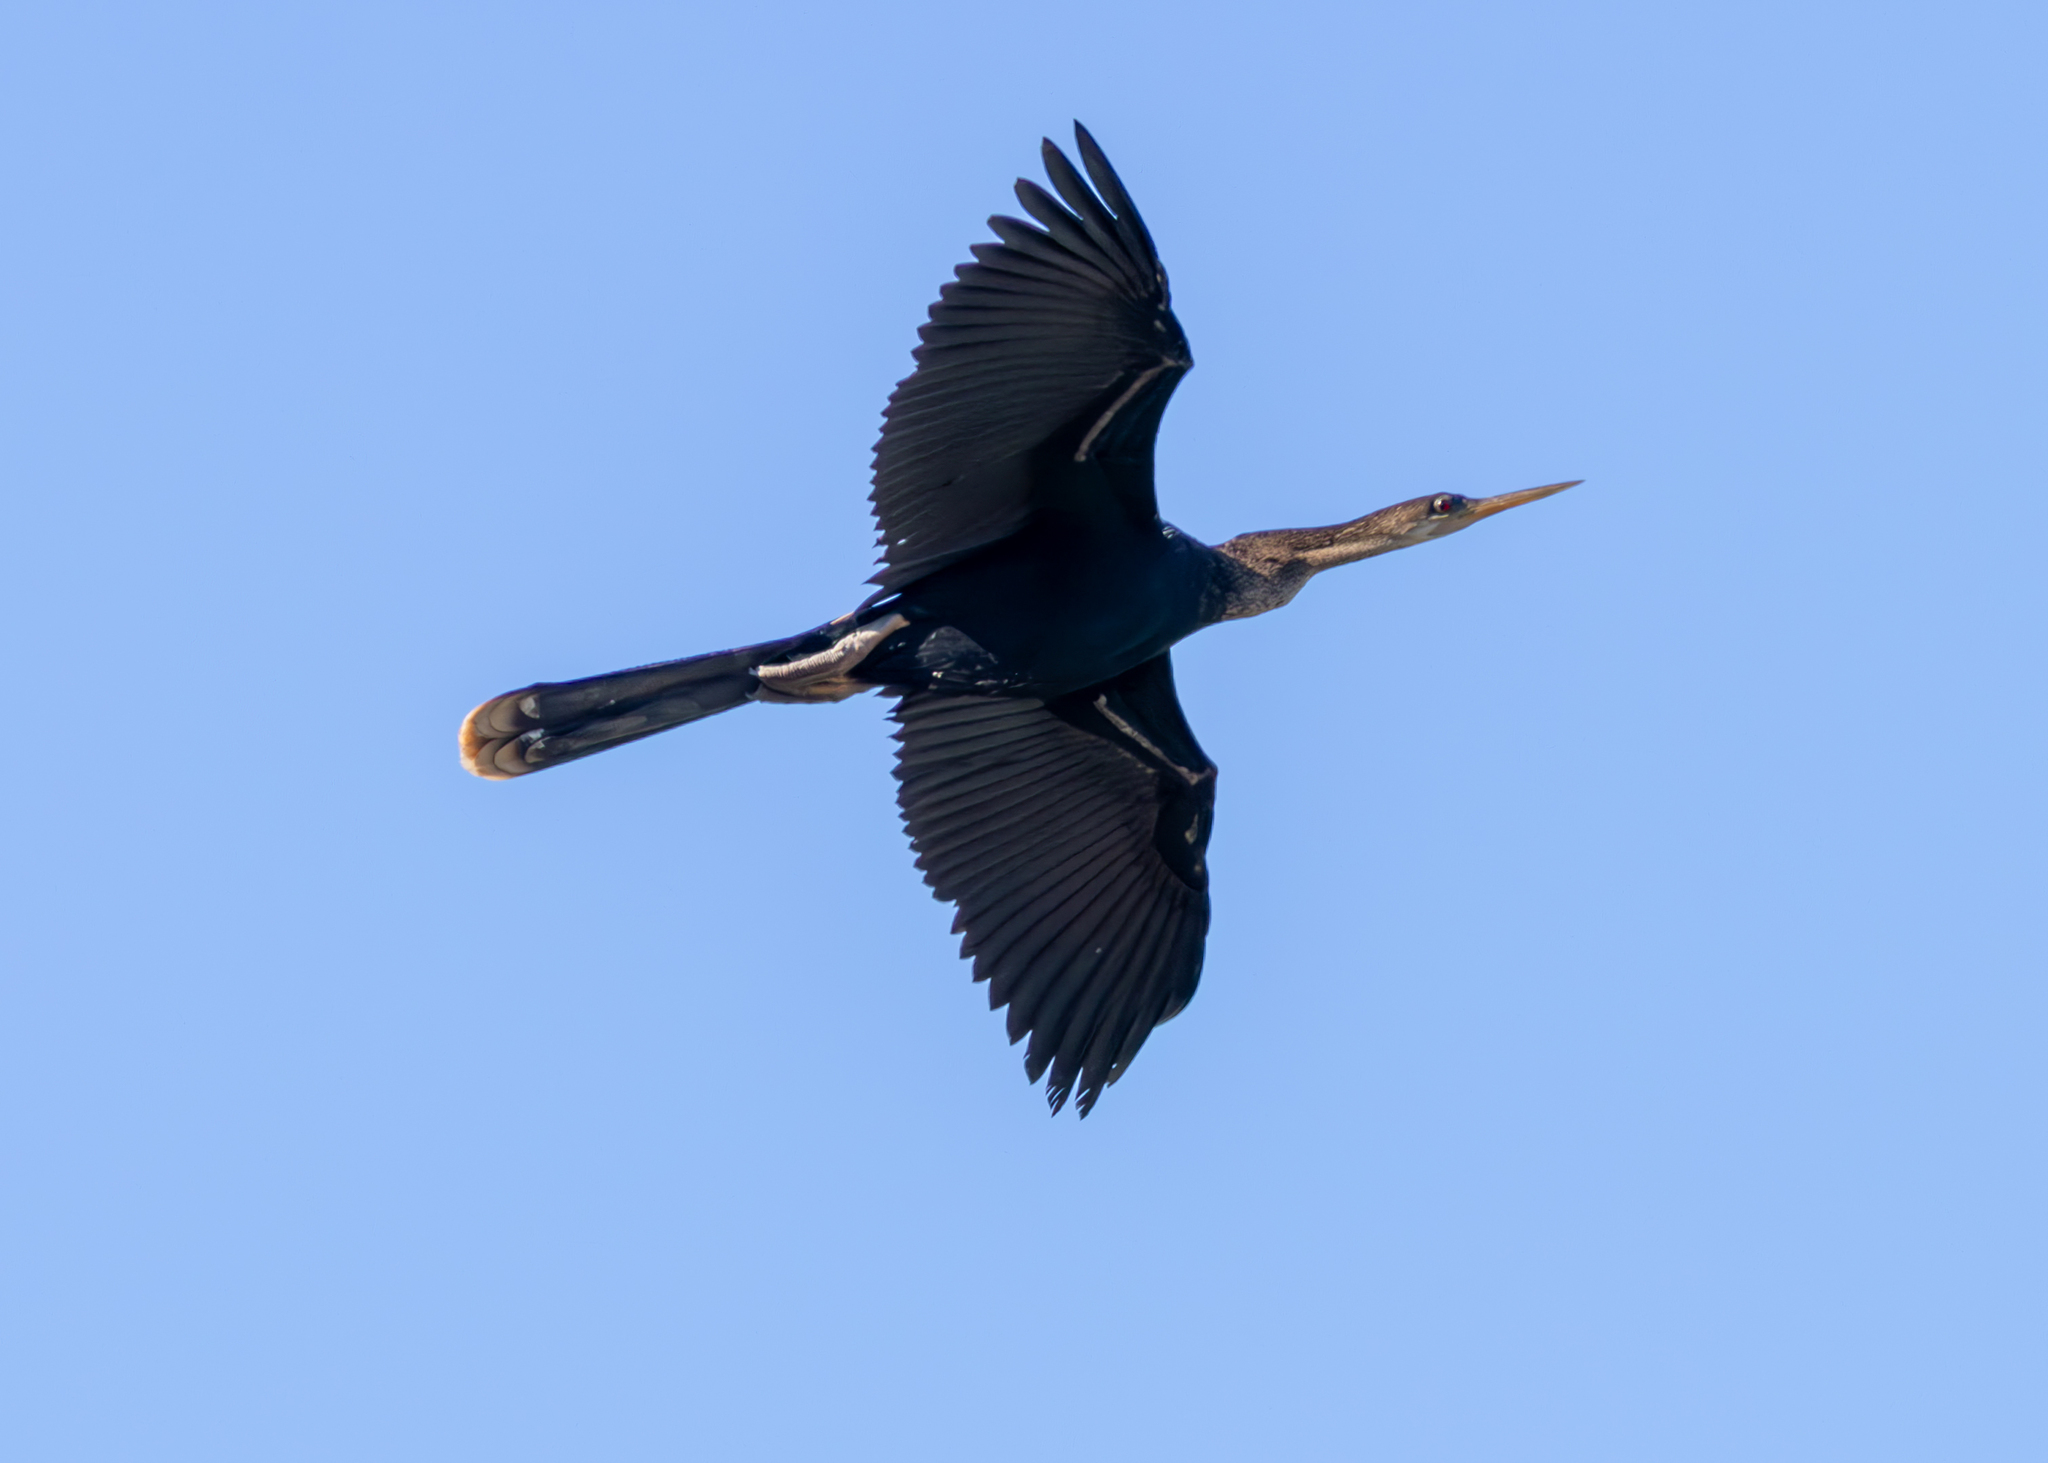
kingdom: Animalia
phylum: Chordata
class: Aves
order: Suliformes
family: Anhingidae
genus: Anhinga
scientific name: Anhinga anhinga
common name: Anhinga
